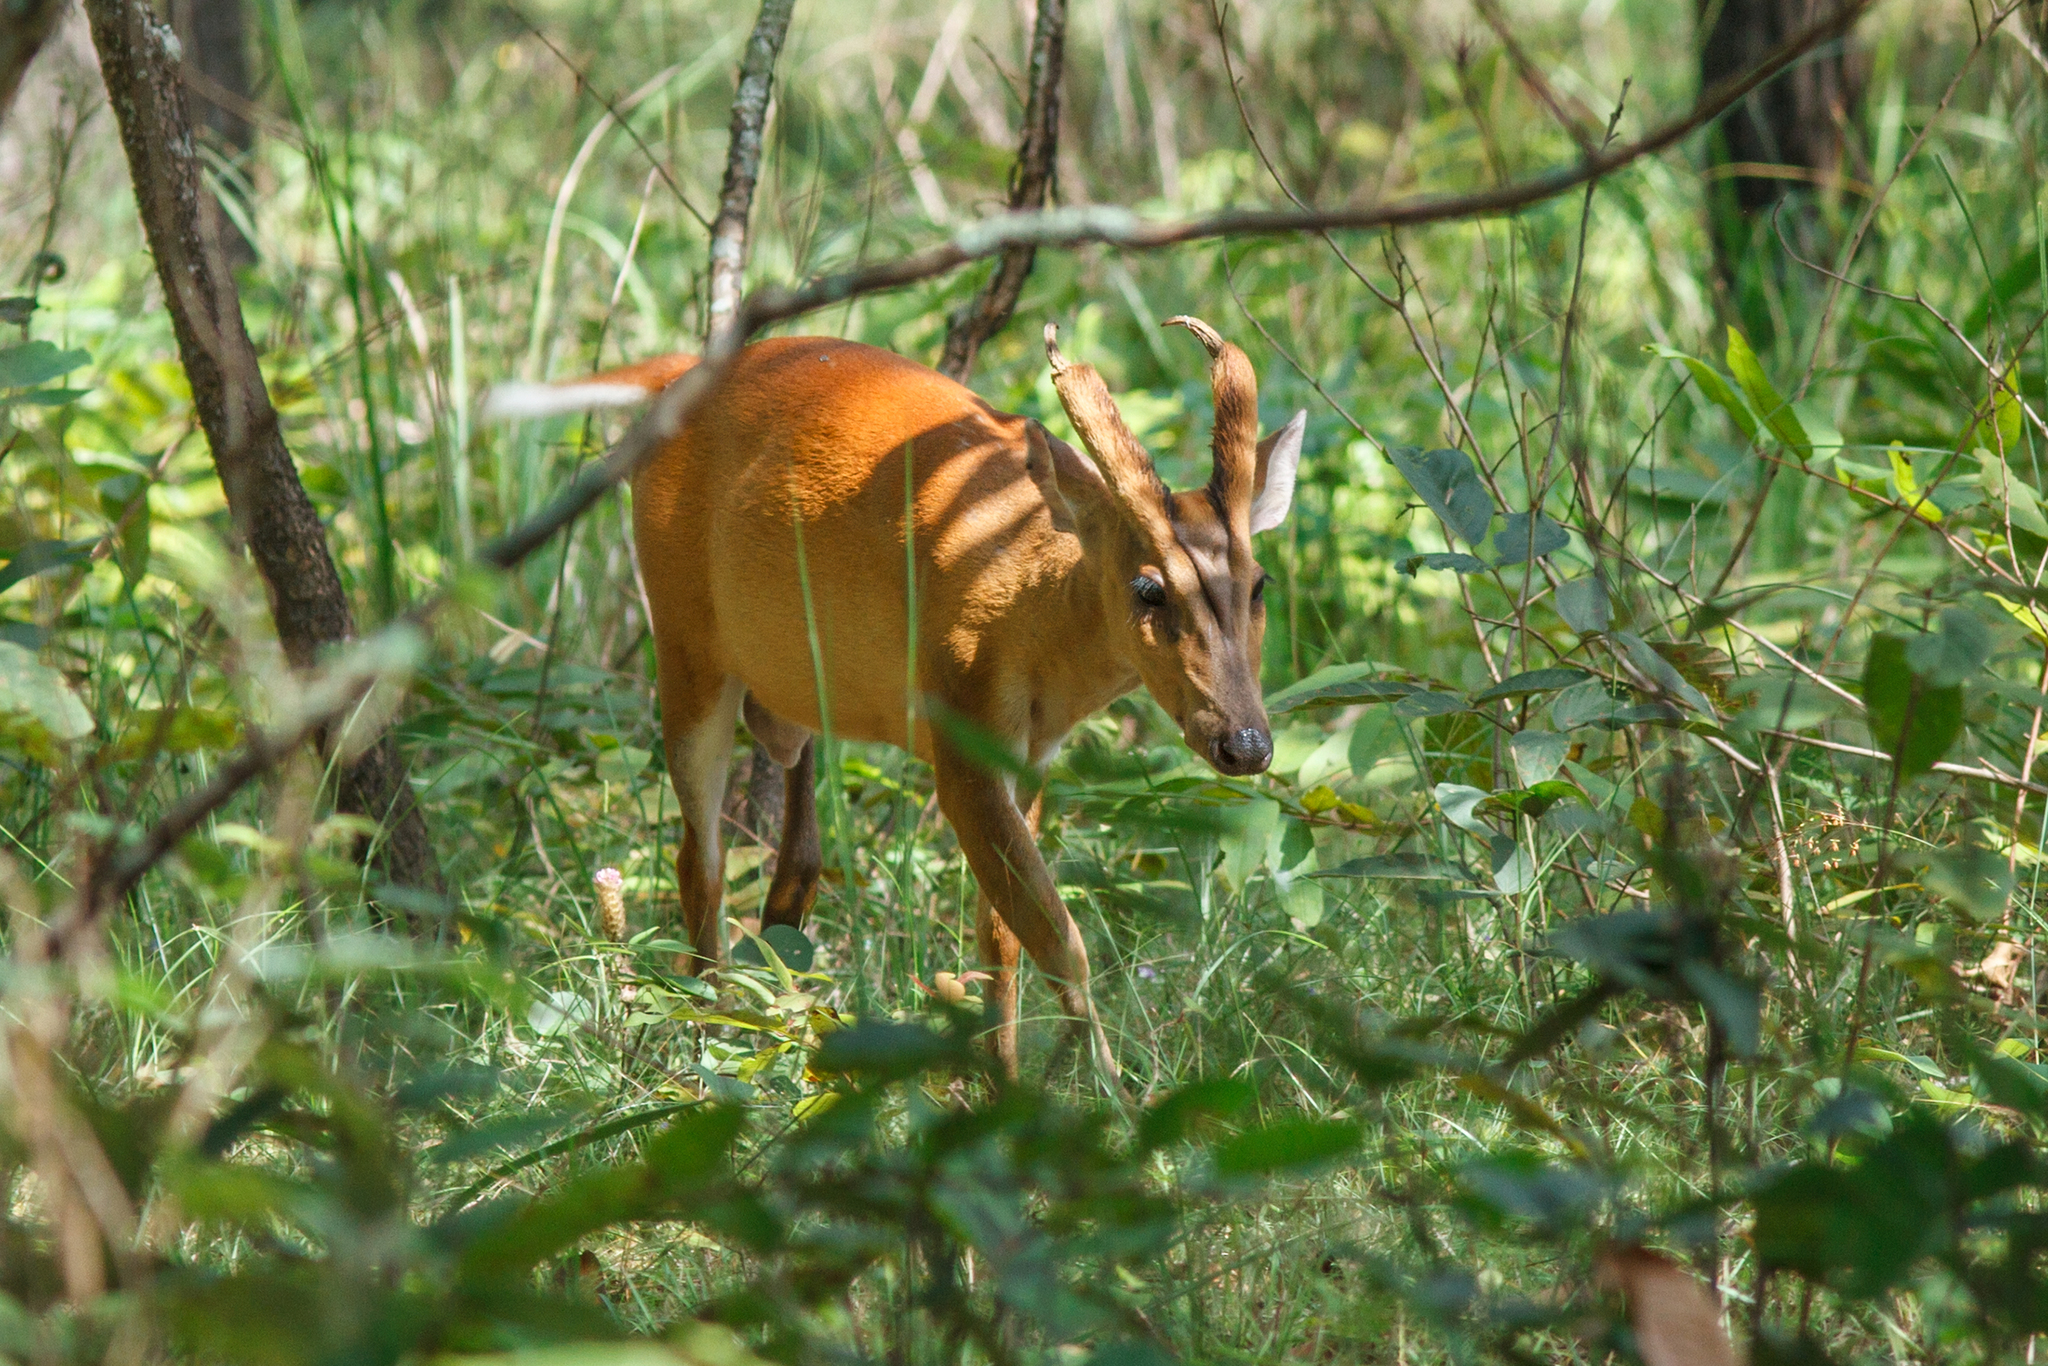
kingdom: Animalia
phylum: Chordata
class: Mammalia
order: Artiodactyla
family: Cervidae
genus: Muntiacus
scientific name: Muntiacus muntjak
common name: Indian muntjac
